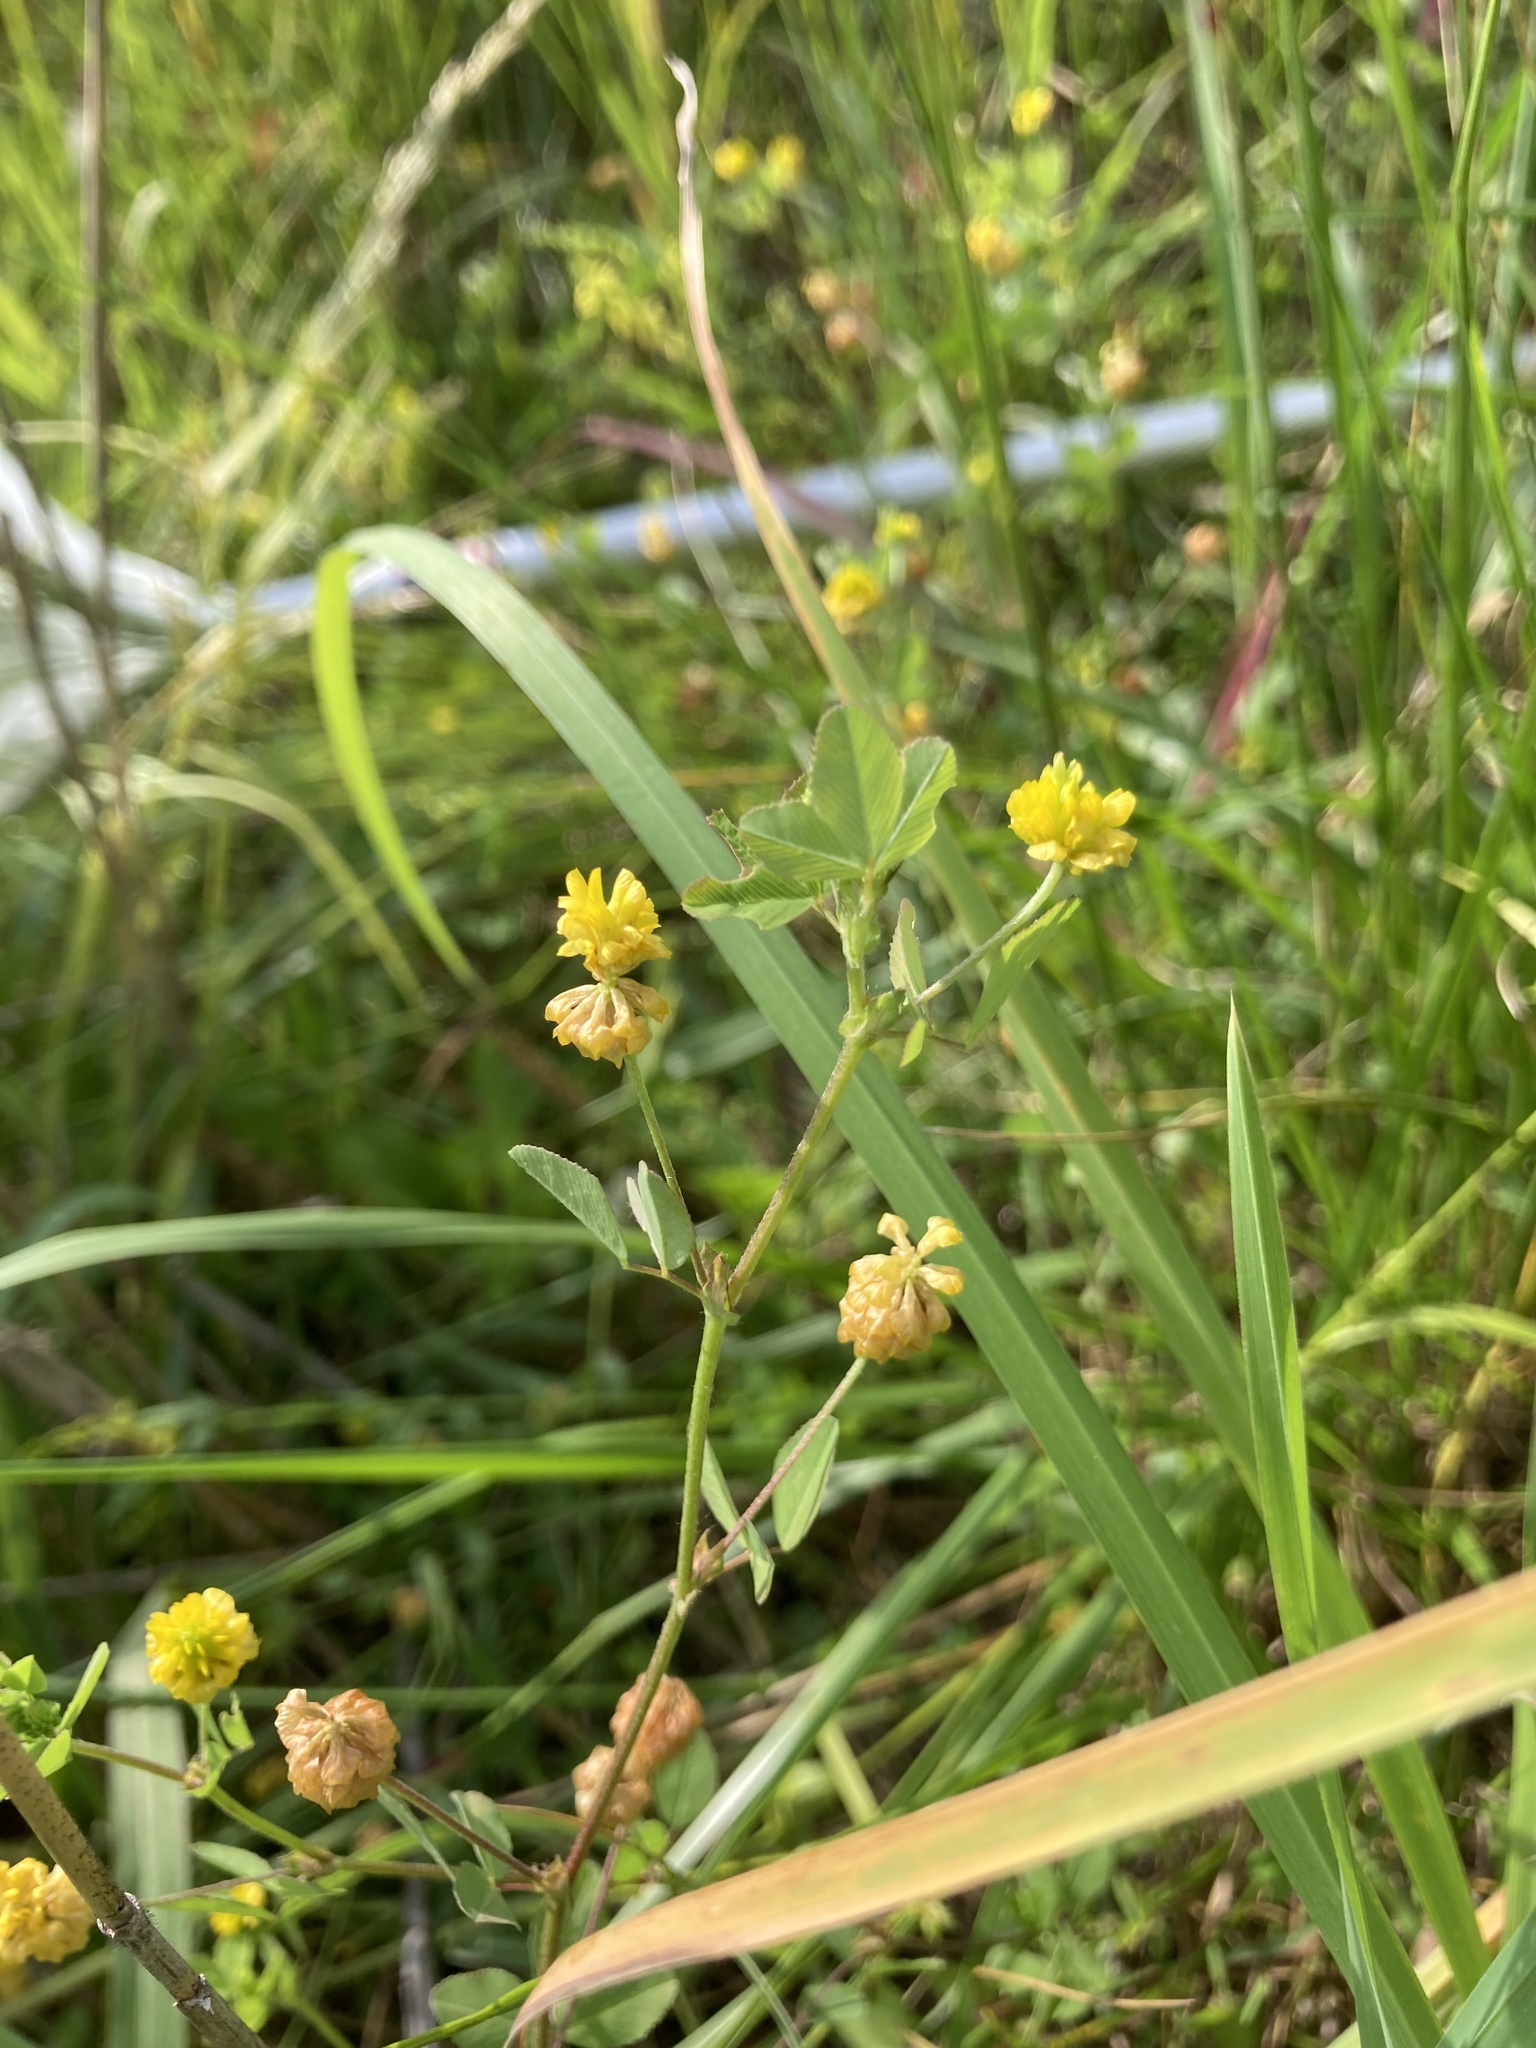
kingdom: Plantae
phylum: Tracheophyta
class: Magnoliopsida
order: Fabales
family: Fabaceae
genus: Trifolium
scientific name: Trifolium campestre
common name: Field clover
